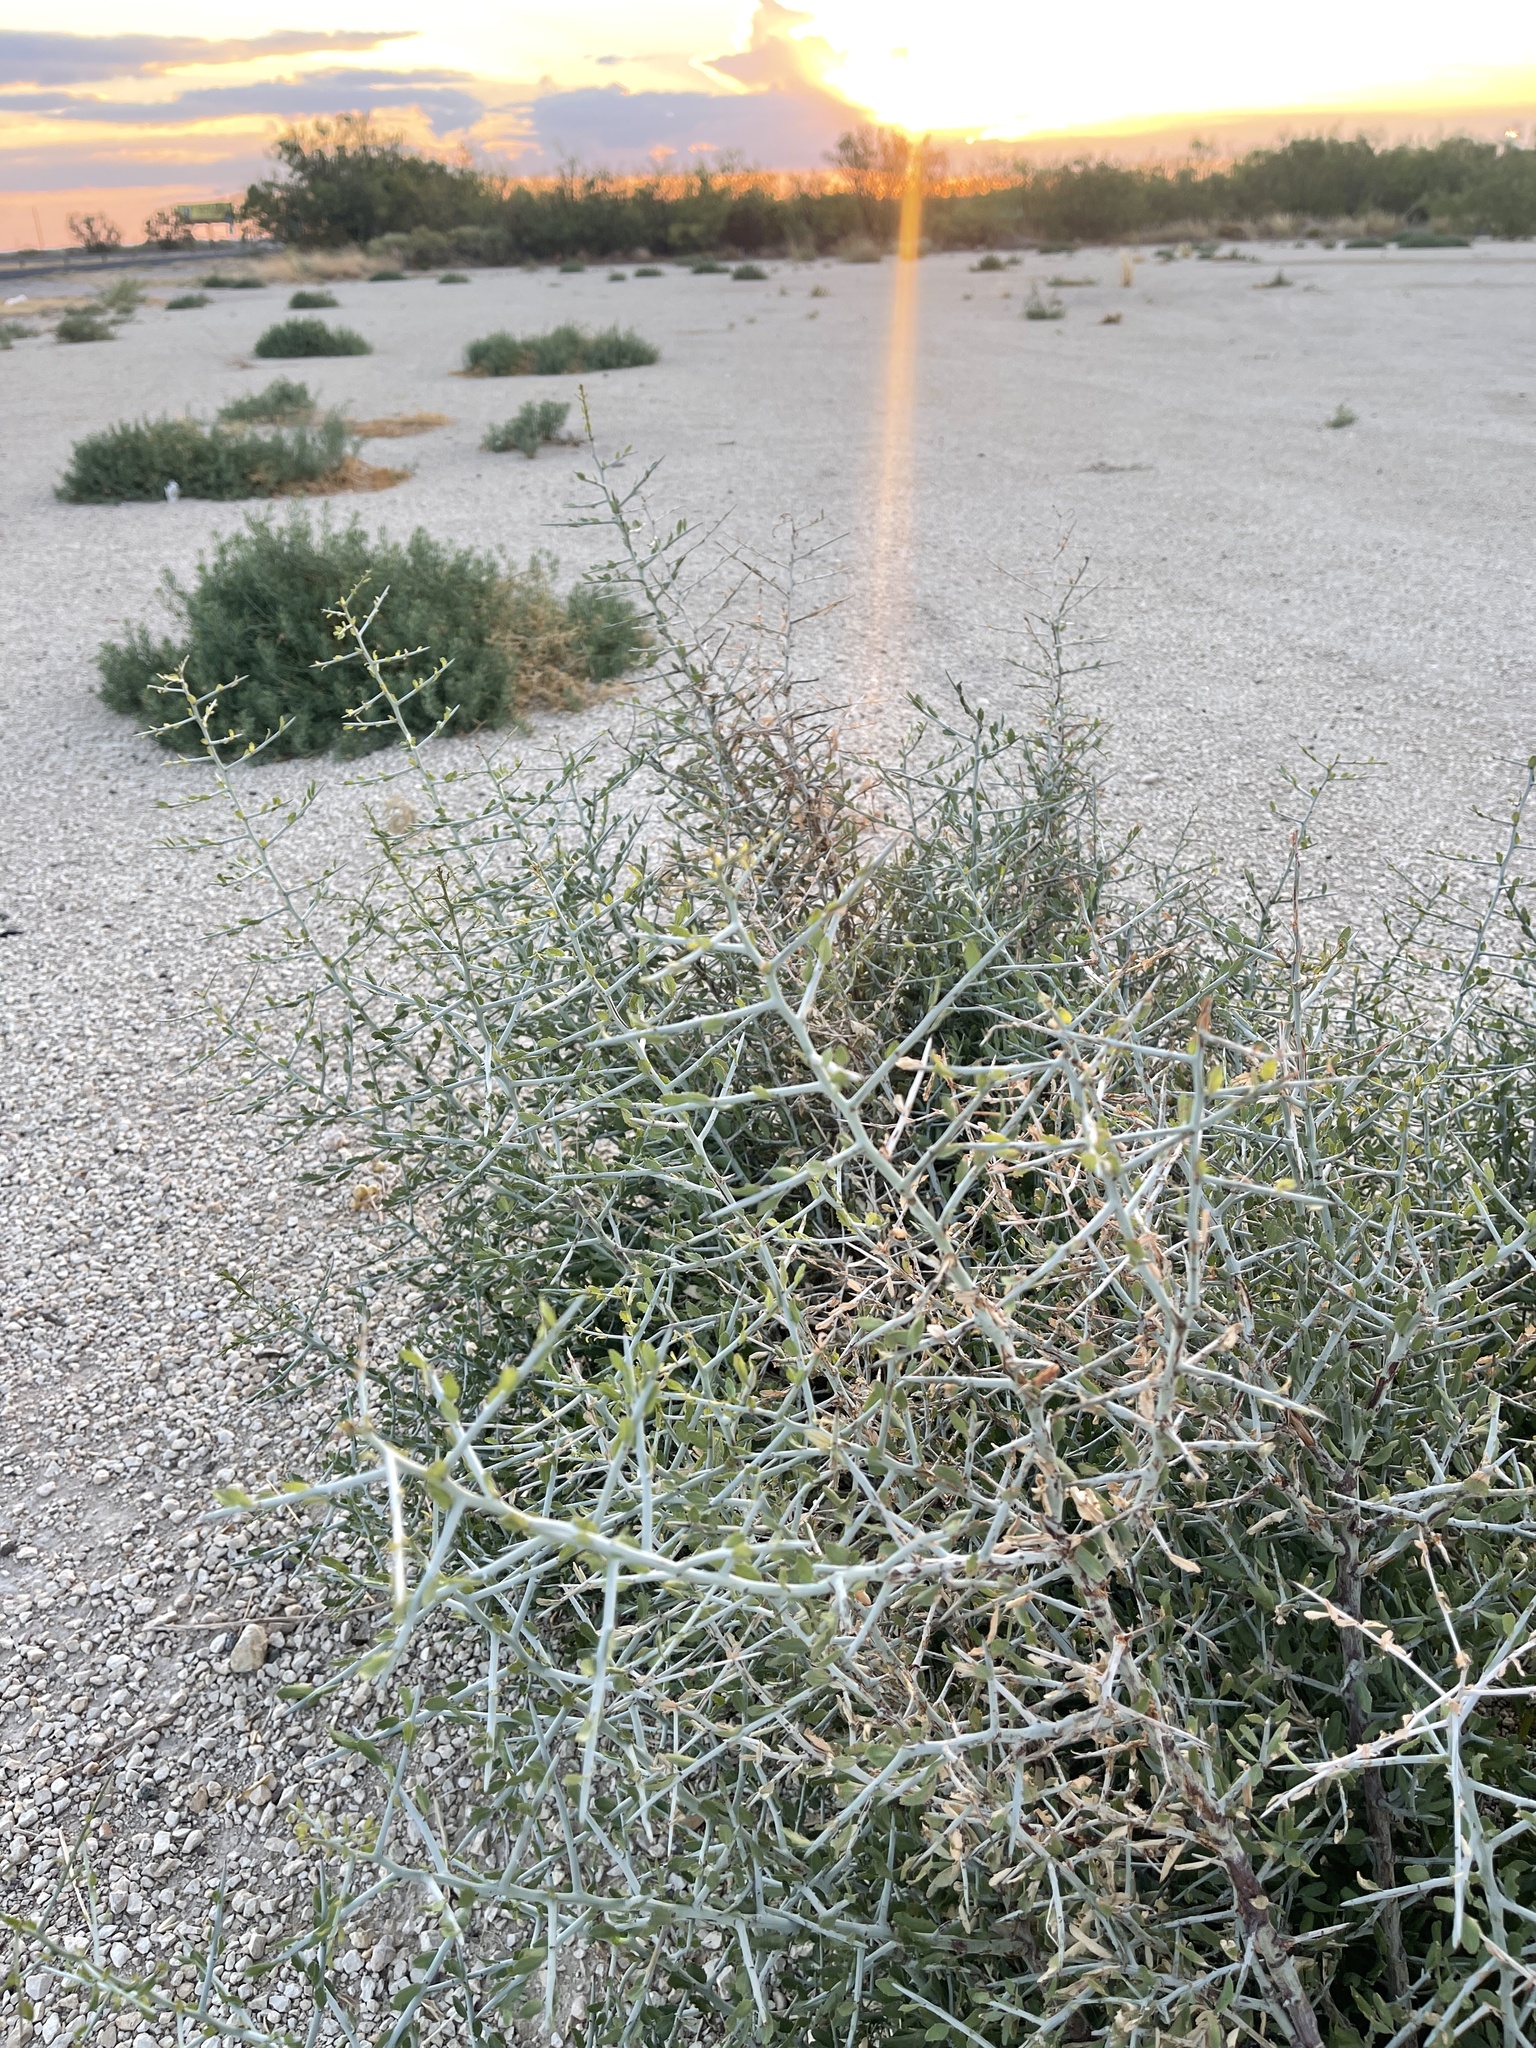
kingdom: Plantae
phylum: Tracheophyta
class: Magnoliopsida
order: Rosales
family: Rhamnaceae
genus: Sarcomphalus
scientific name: Sarcomphalus obtusifolius
